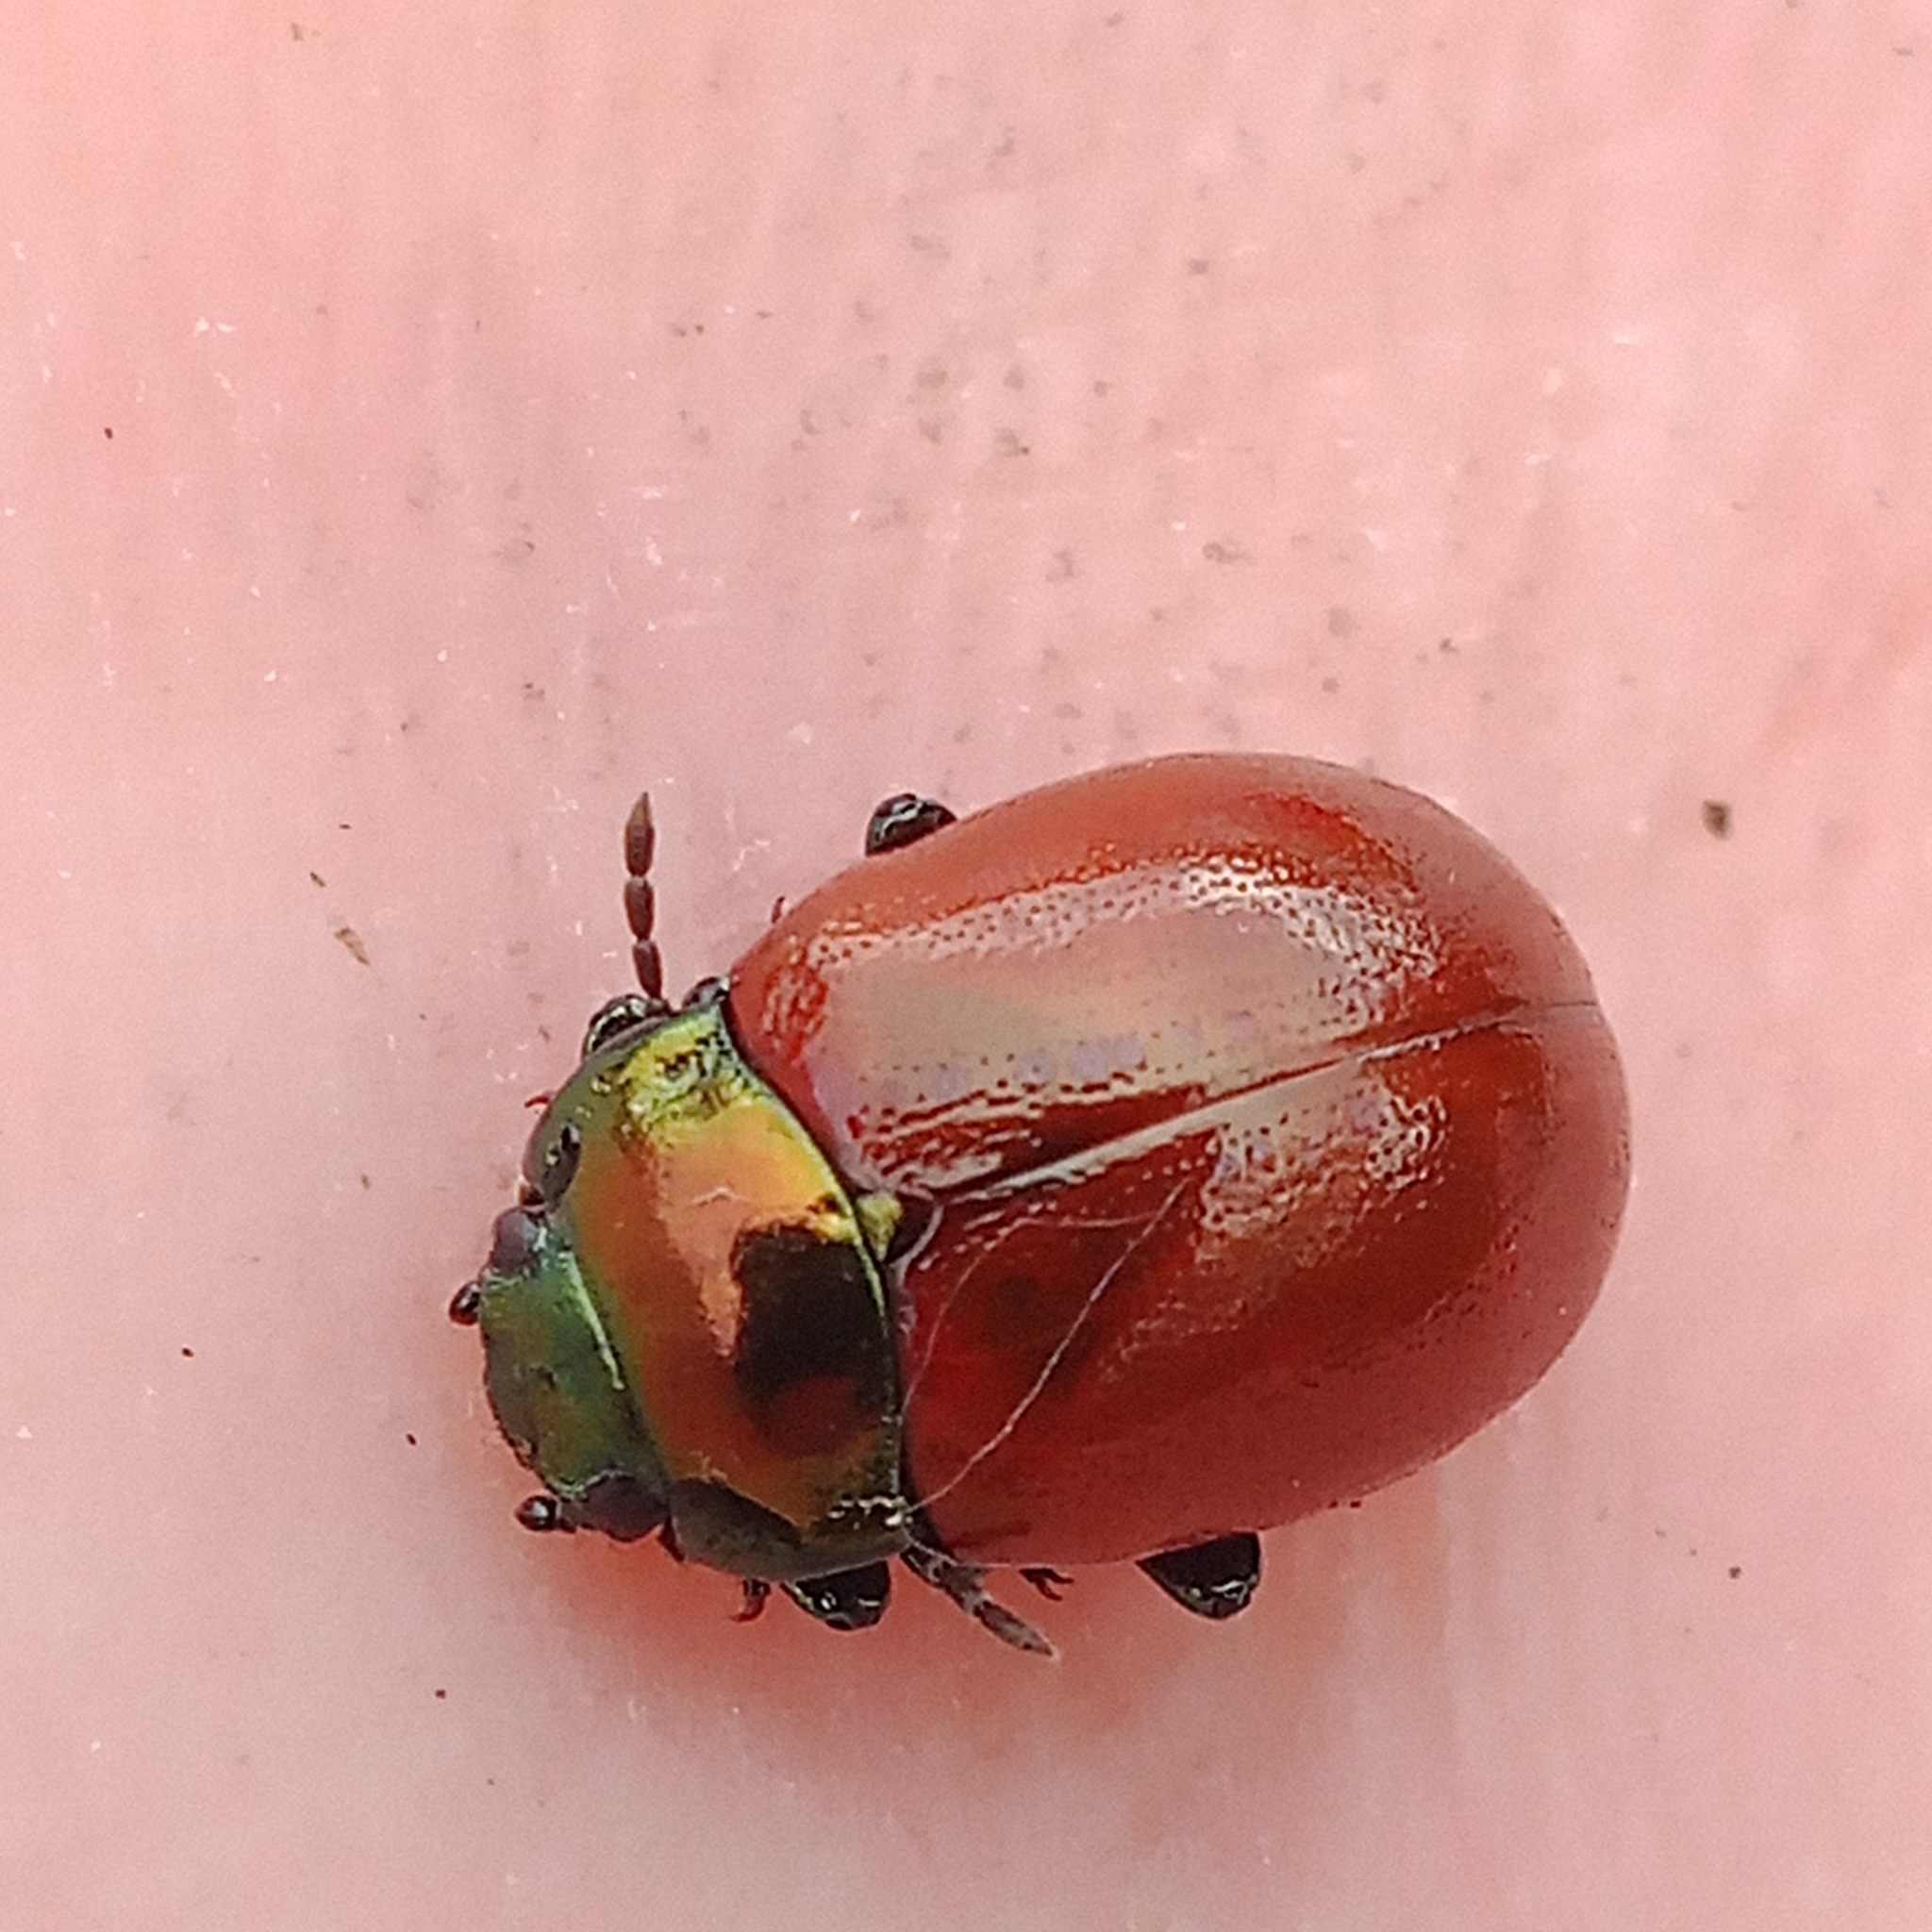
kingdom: Animalia
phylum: Arthropoda
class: Insecta
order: Coleoptera
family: Chrysomelidae
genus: Chrysomela
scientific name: Chrysomela polita
